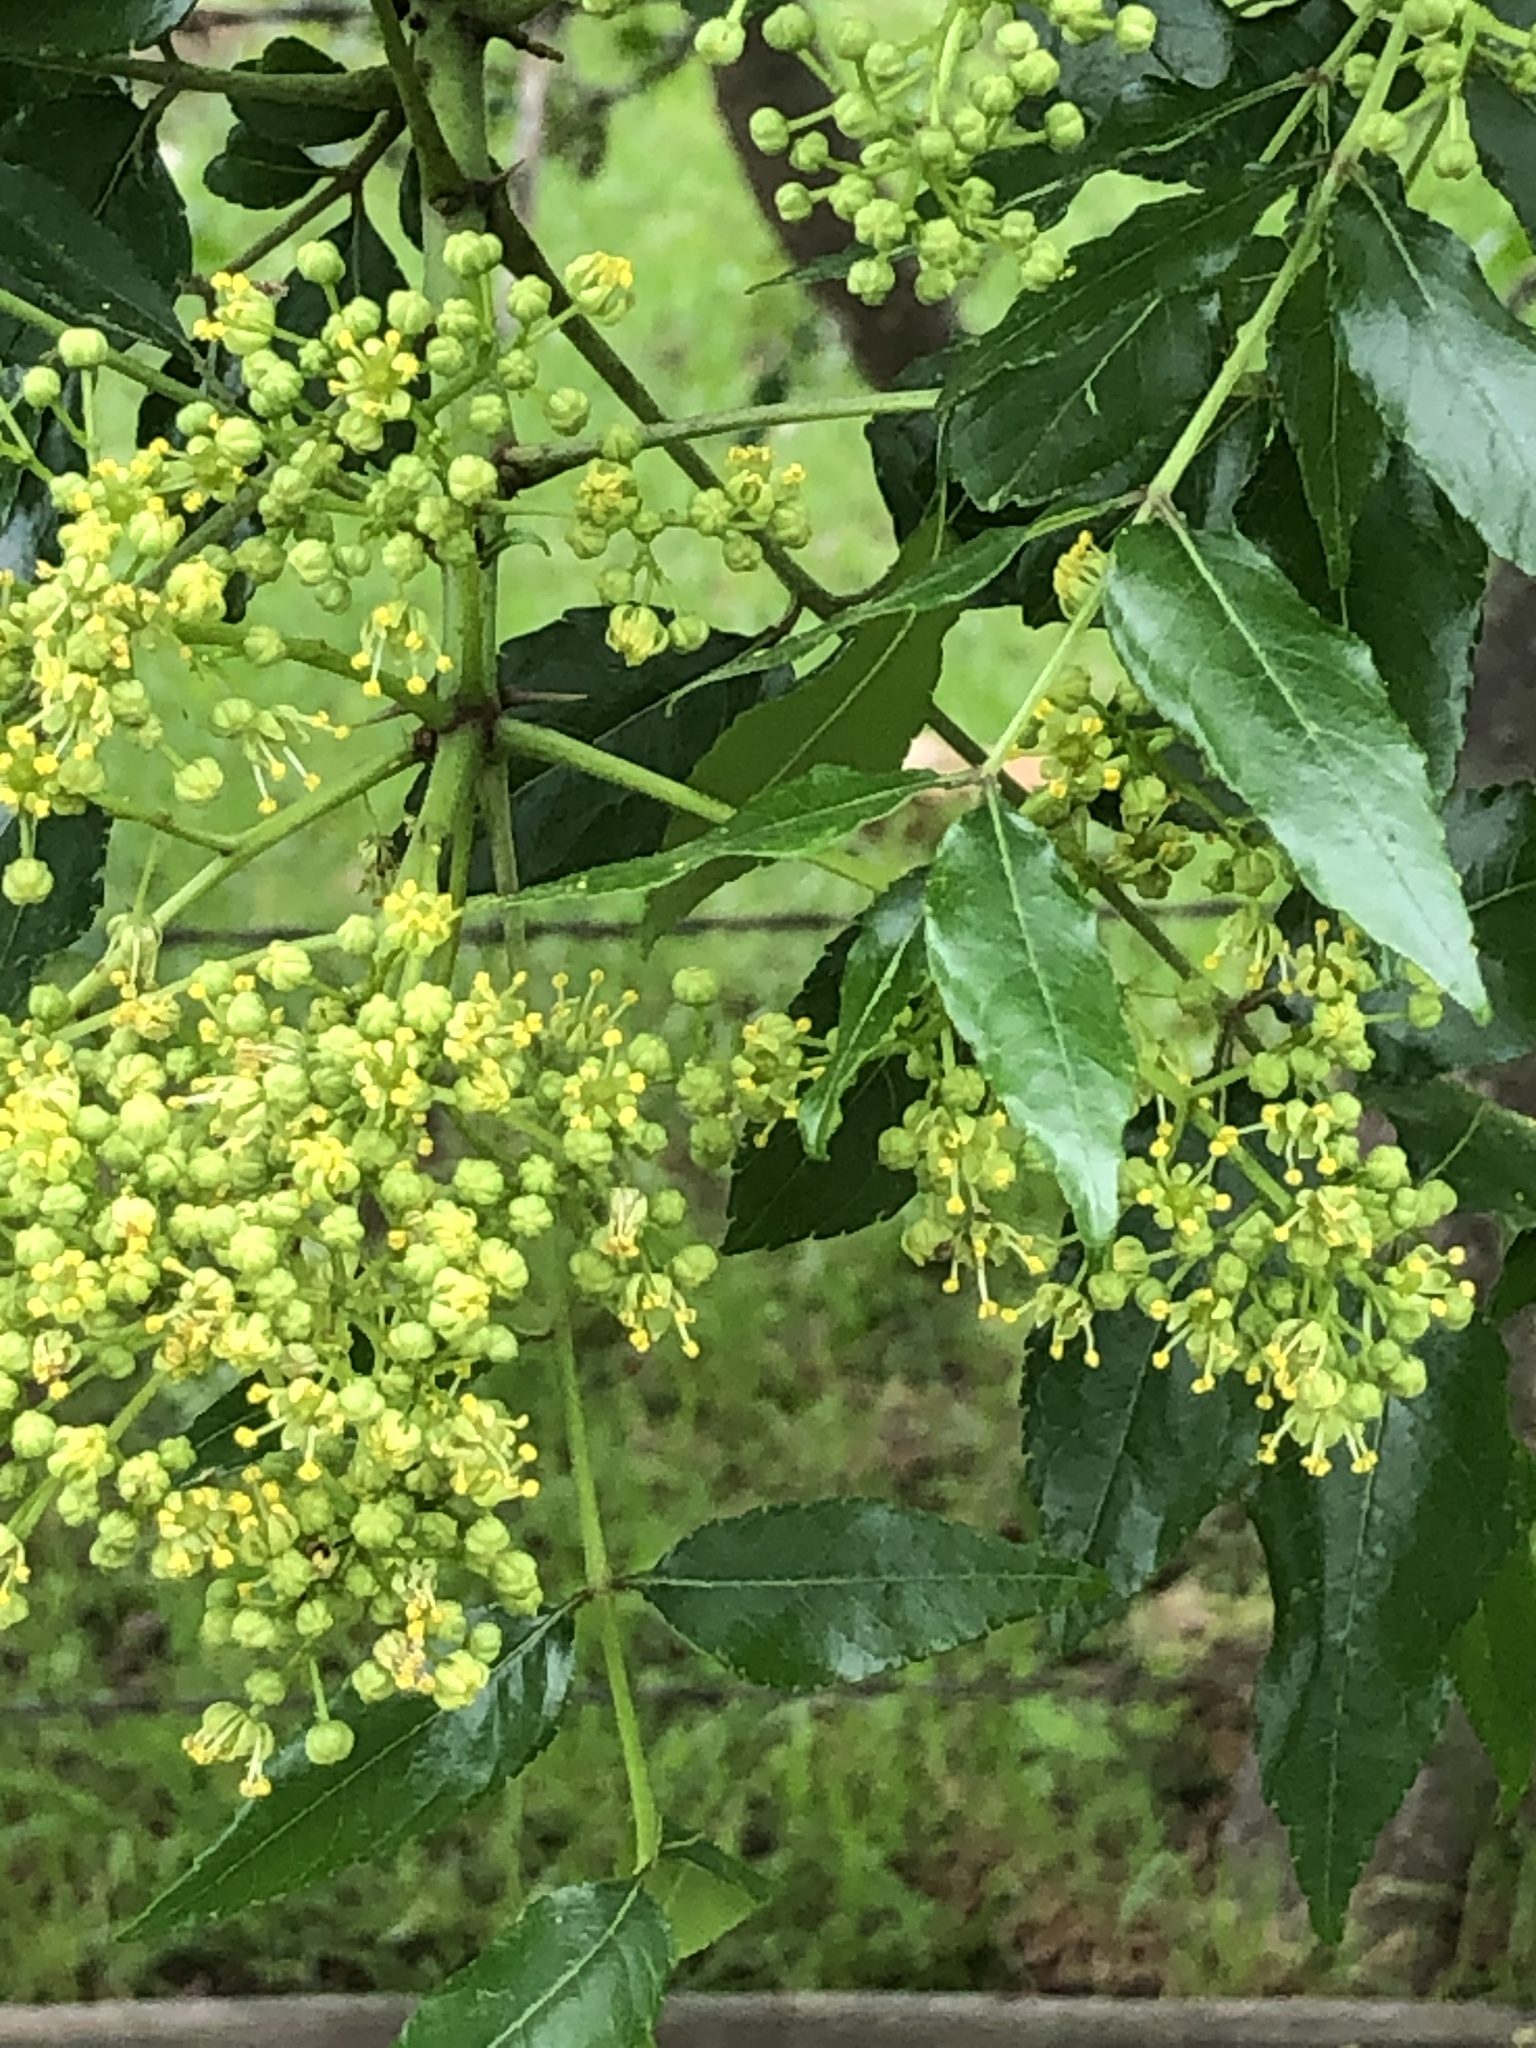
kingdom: Plantae
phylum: Tracheophyta
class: Magnoliopsida
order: Sapindales
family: Rutaceae
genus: Zanthoxylum
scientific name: Zanthoxylum clava-herculis
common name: Hercules'-club
